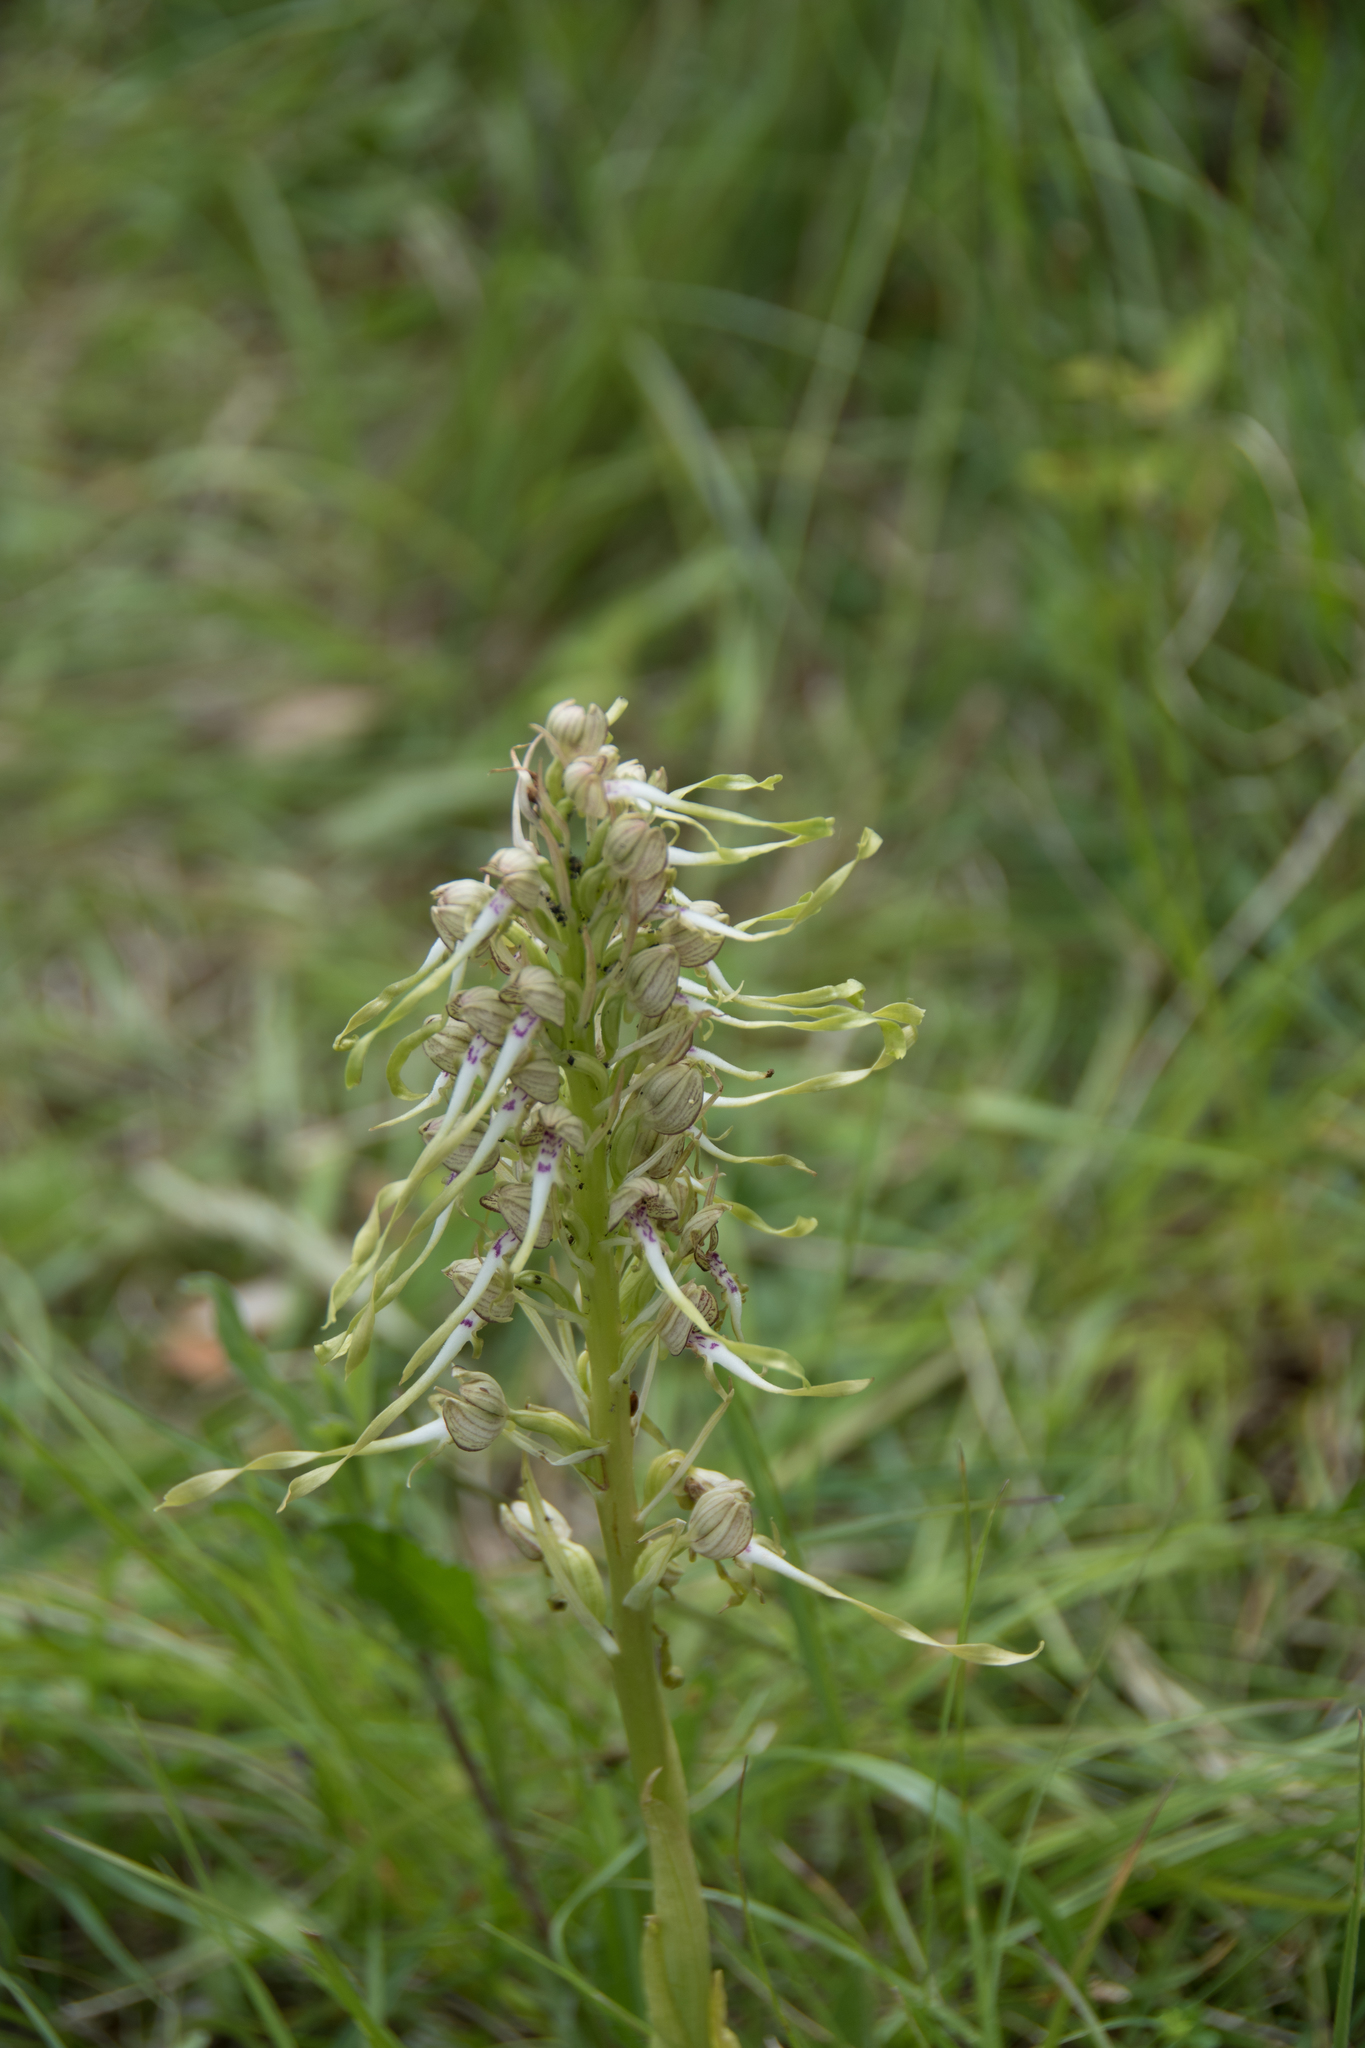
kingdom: Plantae
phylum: Tracheophyta
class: Liliopsida
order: Asparagales
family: Orchidaceae
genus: Himantoglossum
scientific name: Himantoglossum hircinum
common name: Lizard orchid
